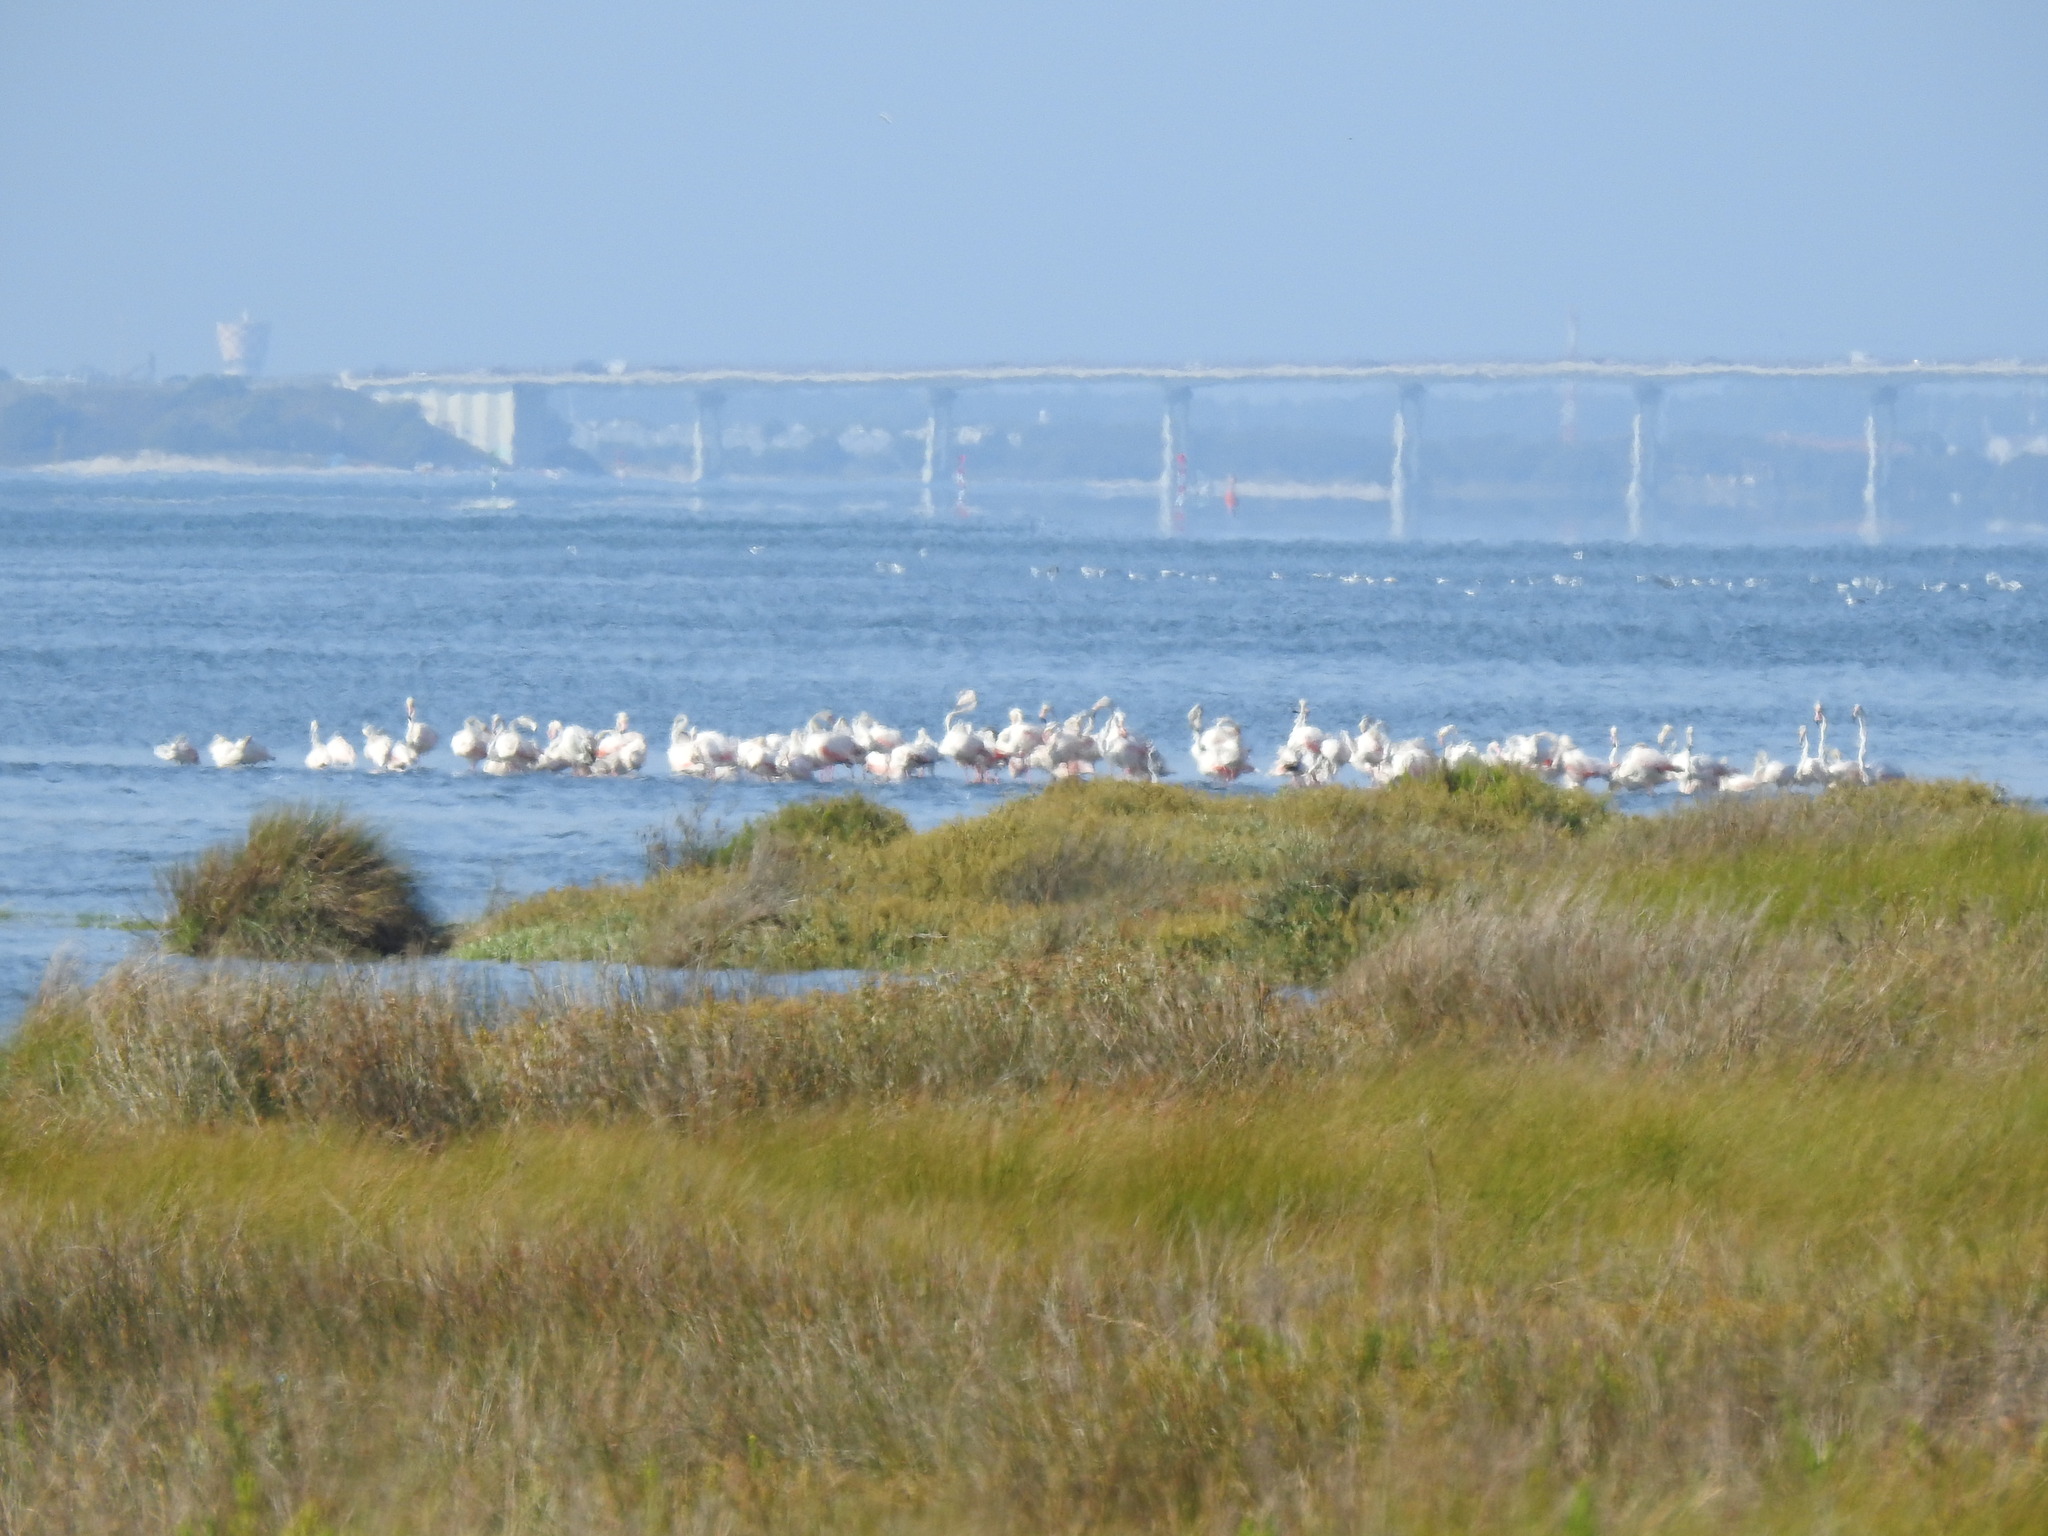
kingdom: Animalia
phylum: Chordata
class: Aves
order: Phoenicopteriformes
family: Phoenicopteridae
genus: Phoenicopterus
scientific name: Phoenicopterus roseus
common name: Greater flamingo
